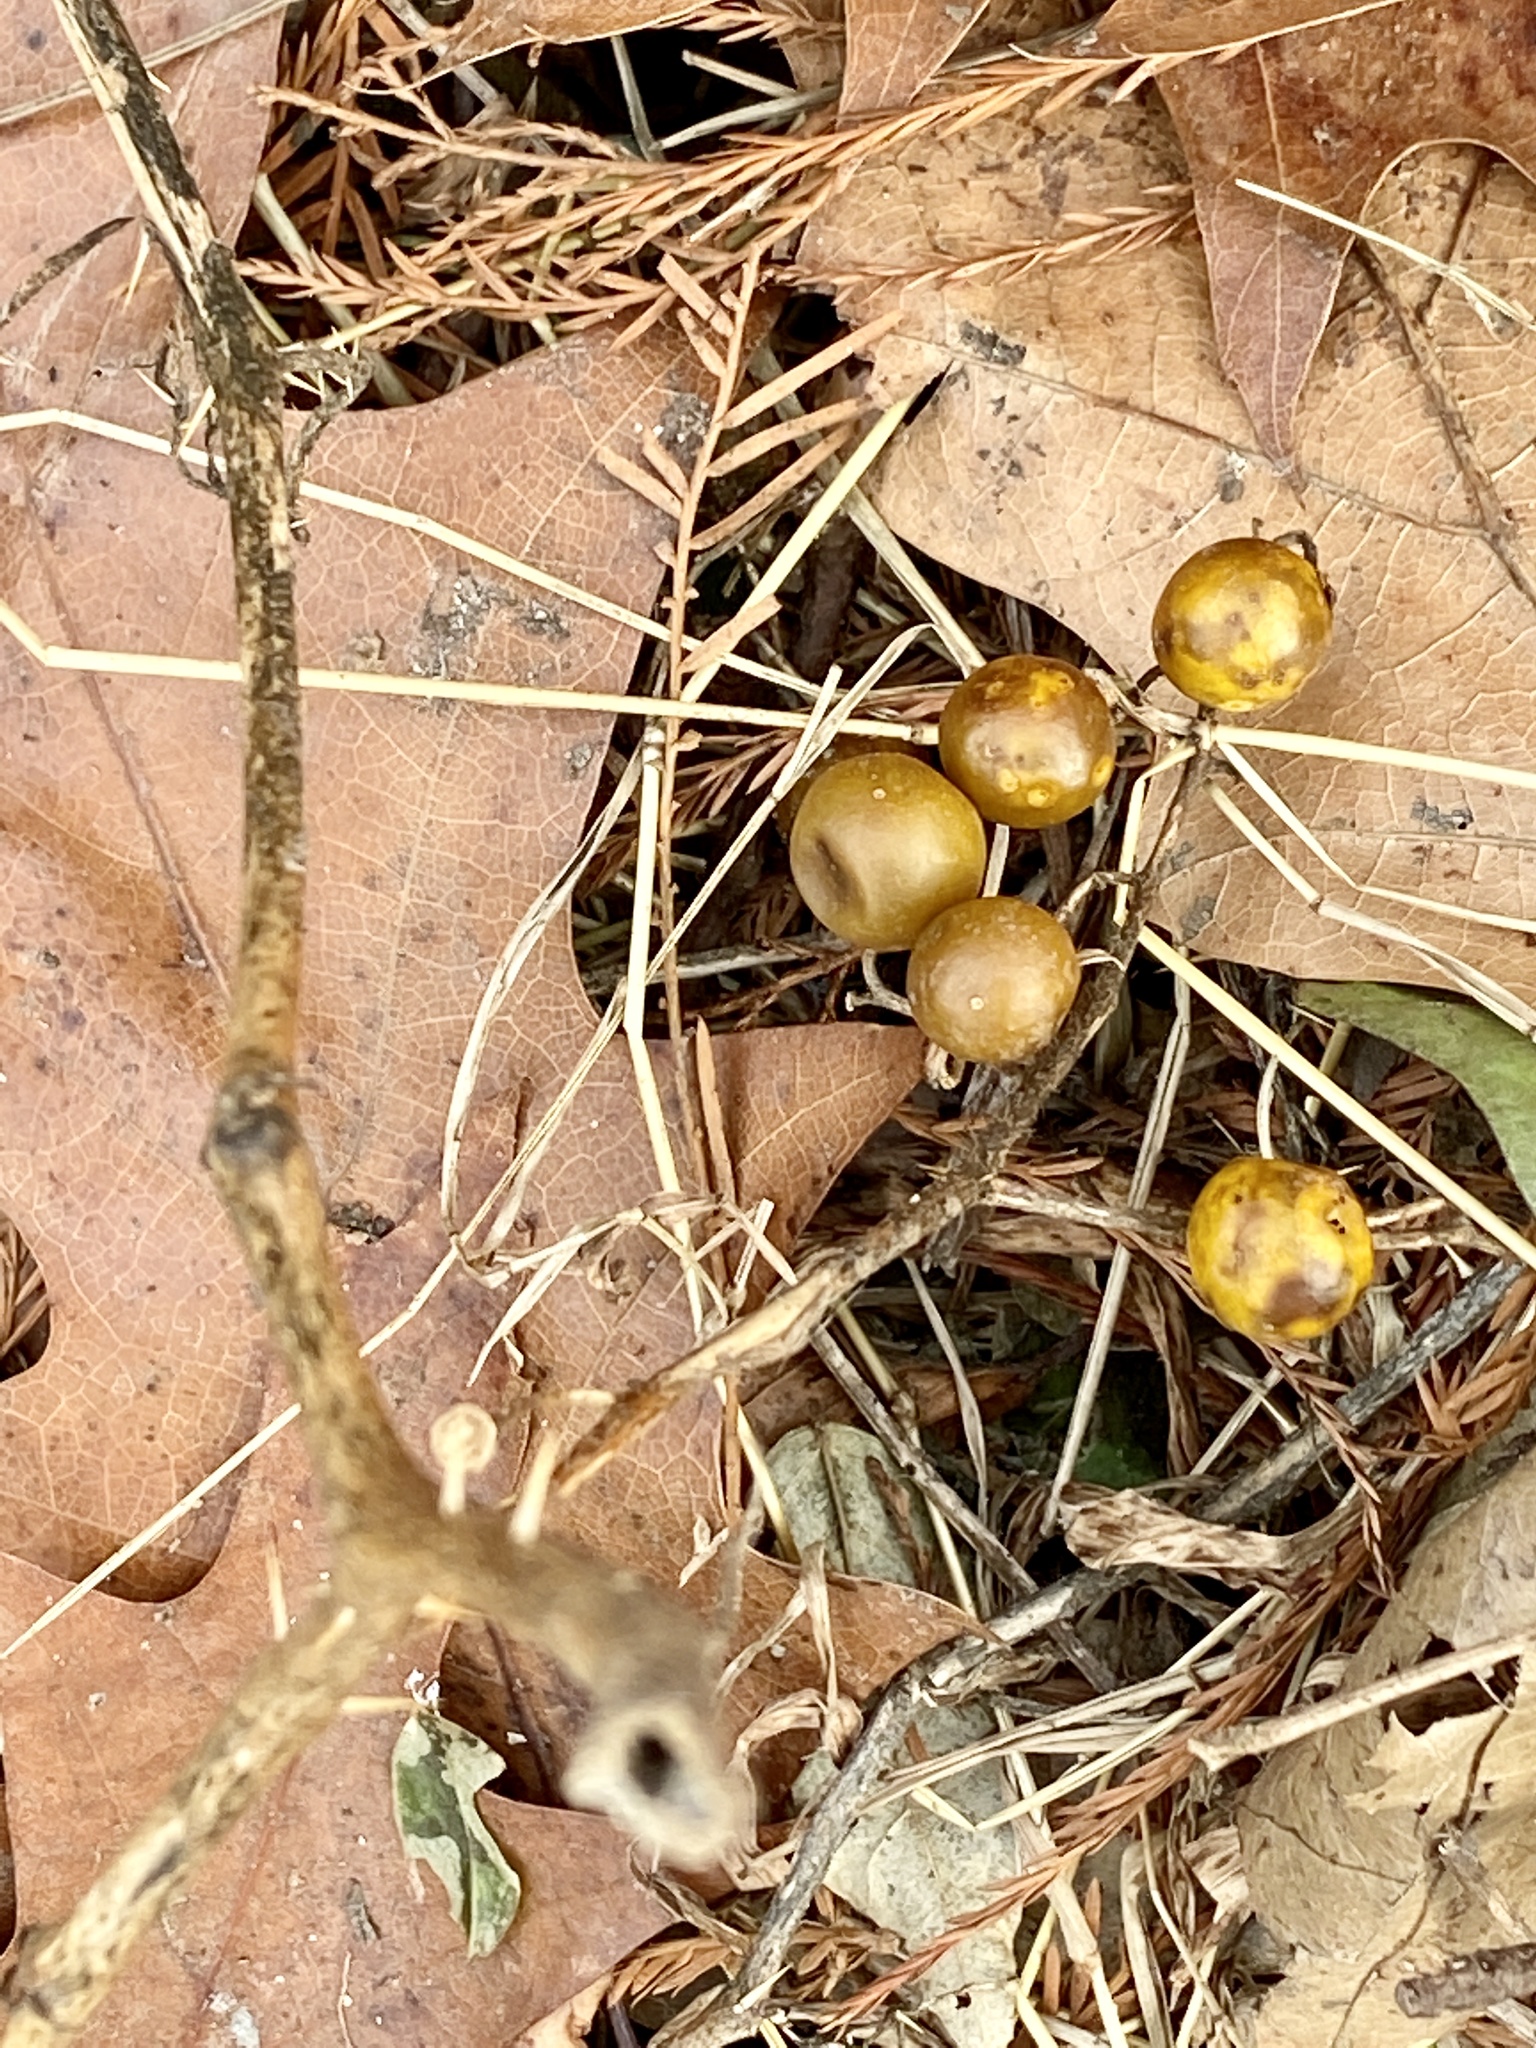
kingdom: Plantae
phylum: Tracheophyta
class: Magnoliopsida
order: Solanales
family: Solanaceae
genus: Solanum
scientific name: Solanum carolinense
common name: Horse-nettle
